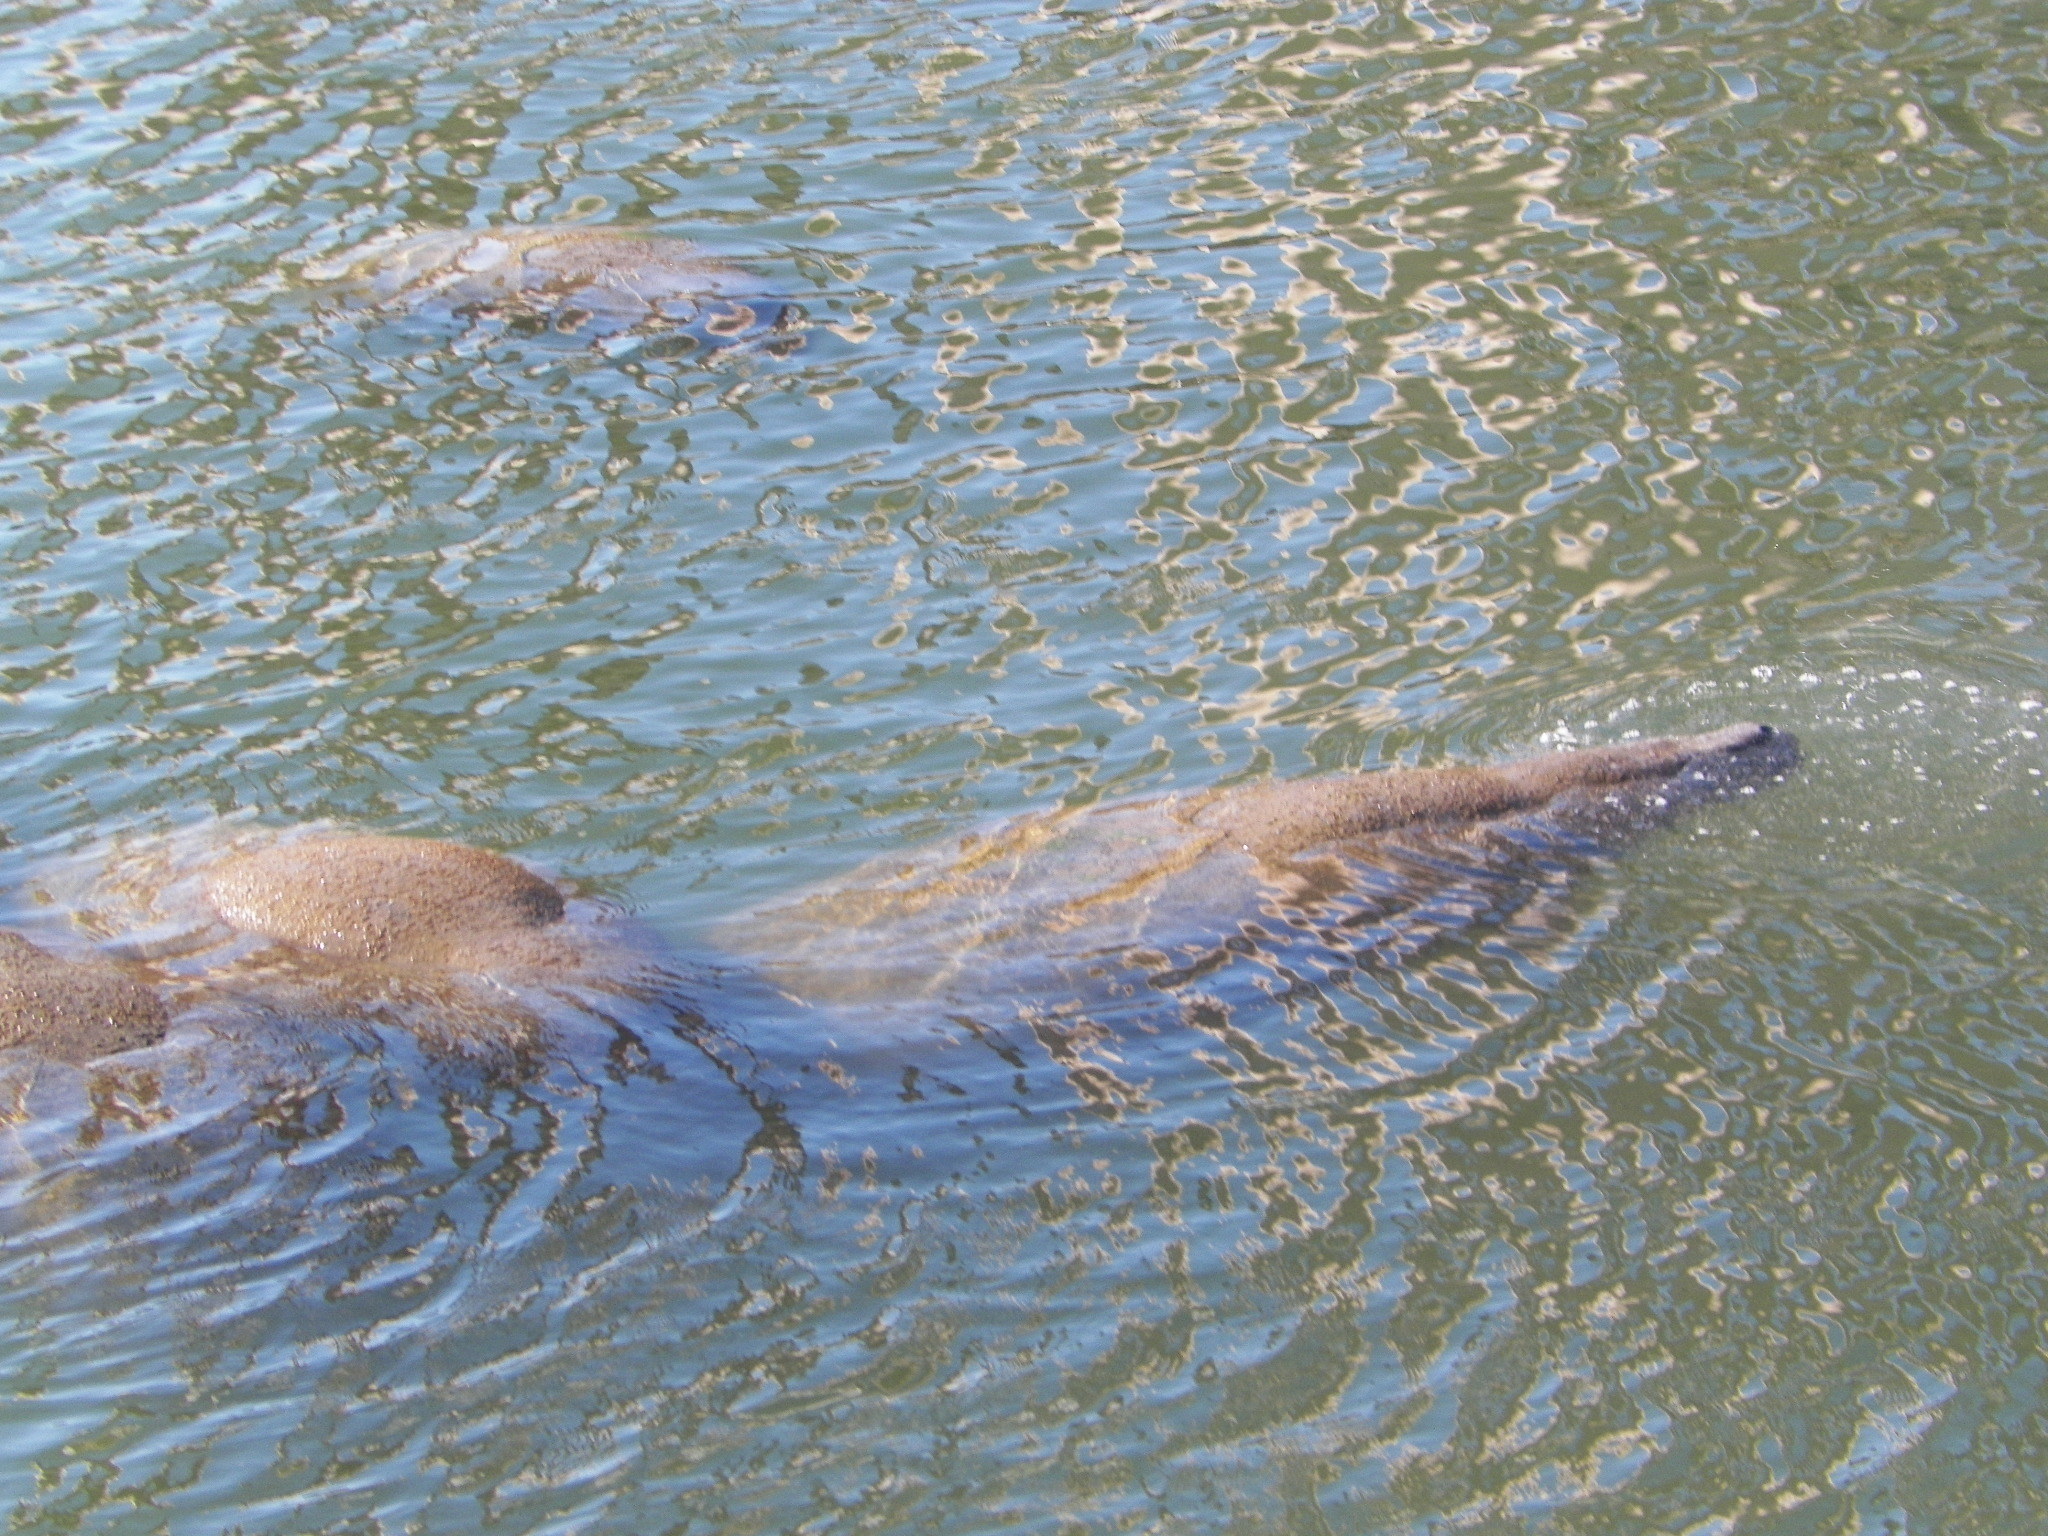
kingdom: Animalia
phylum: Chordata
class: Mammalia
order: Sirenia
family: Trichechidae
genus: Trichechus
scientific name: Trichechus manatus
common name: West indian manatee
